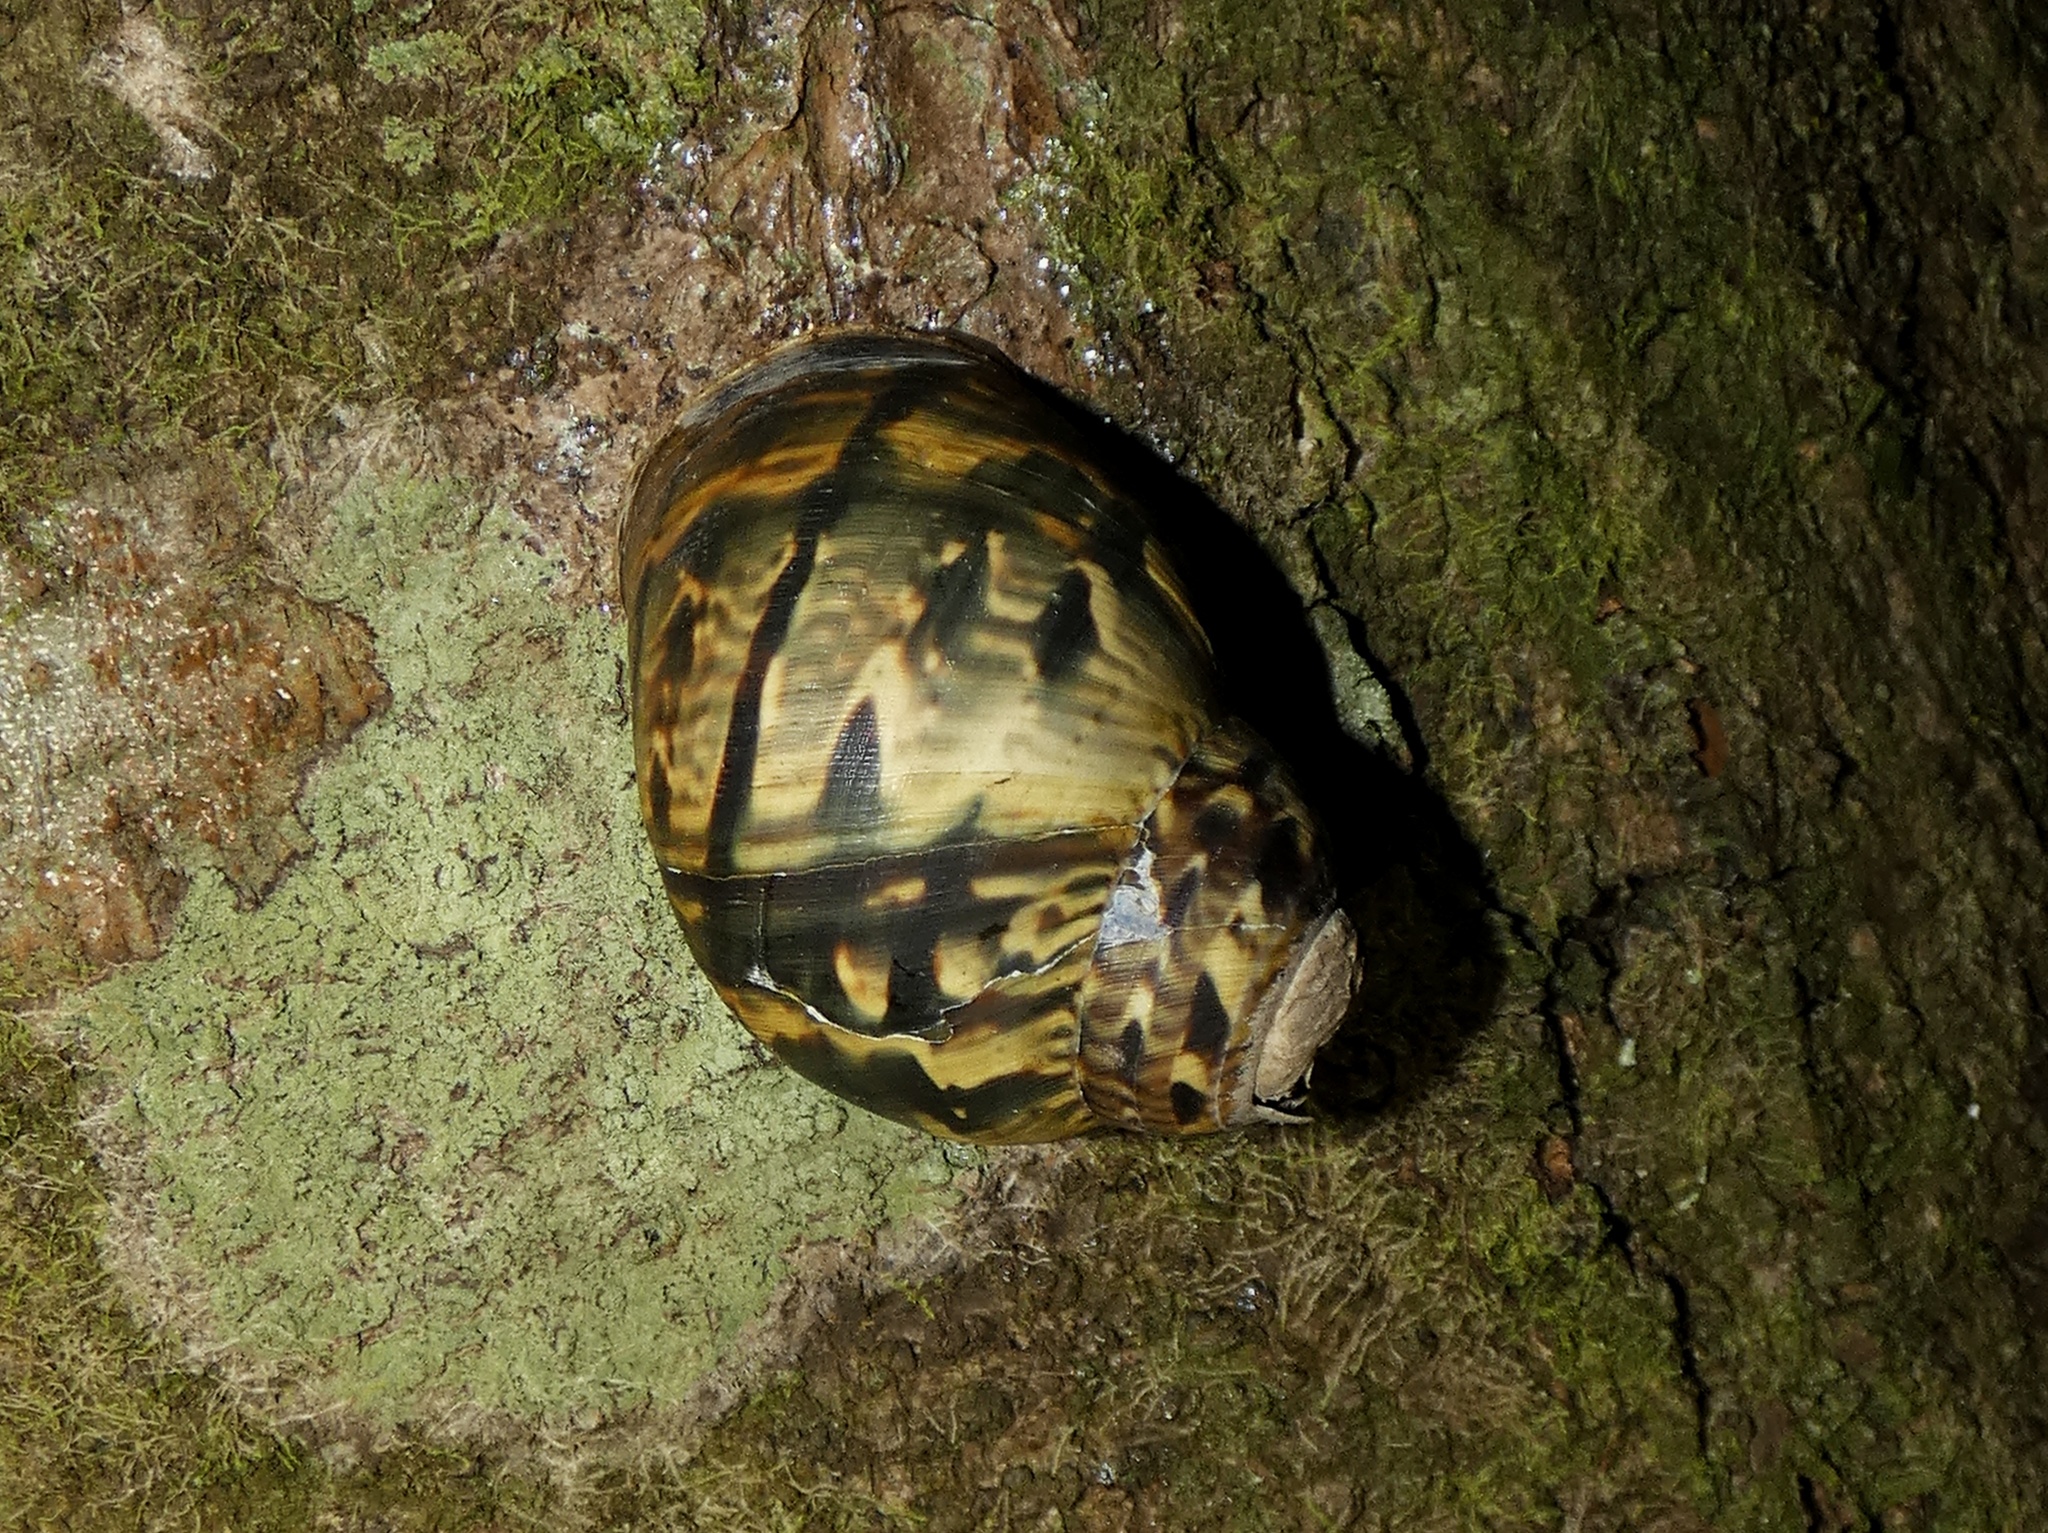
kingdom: Animalia
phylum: Mollusca
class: Gastropoda
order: Stylommatophora
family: Orthalicidae
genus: Sultana
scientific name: Sultana sultana
